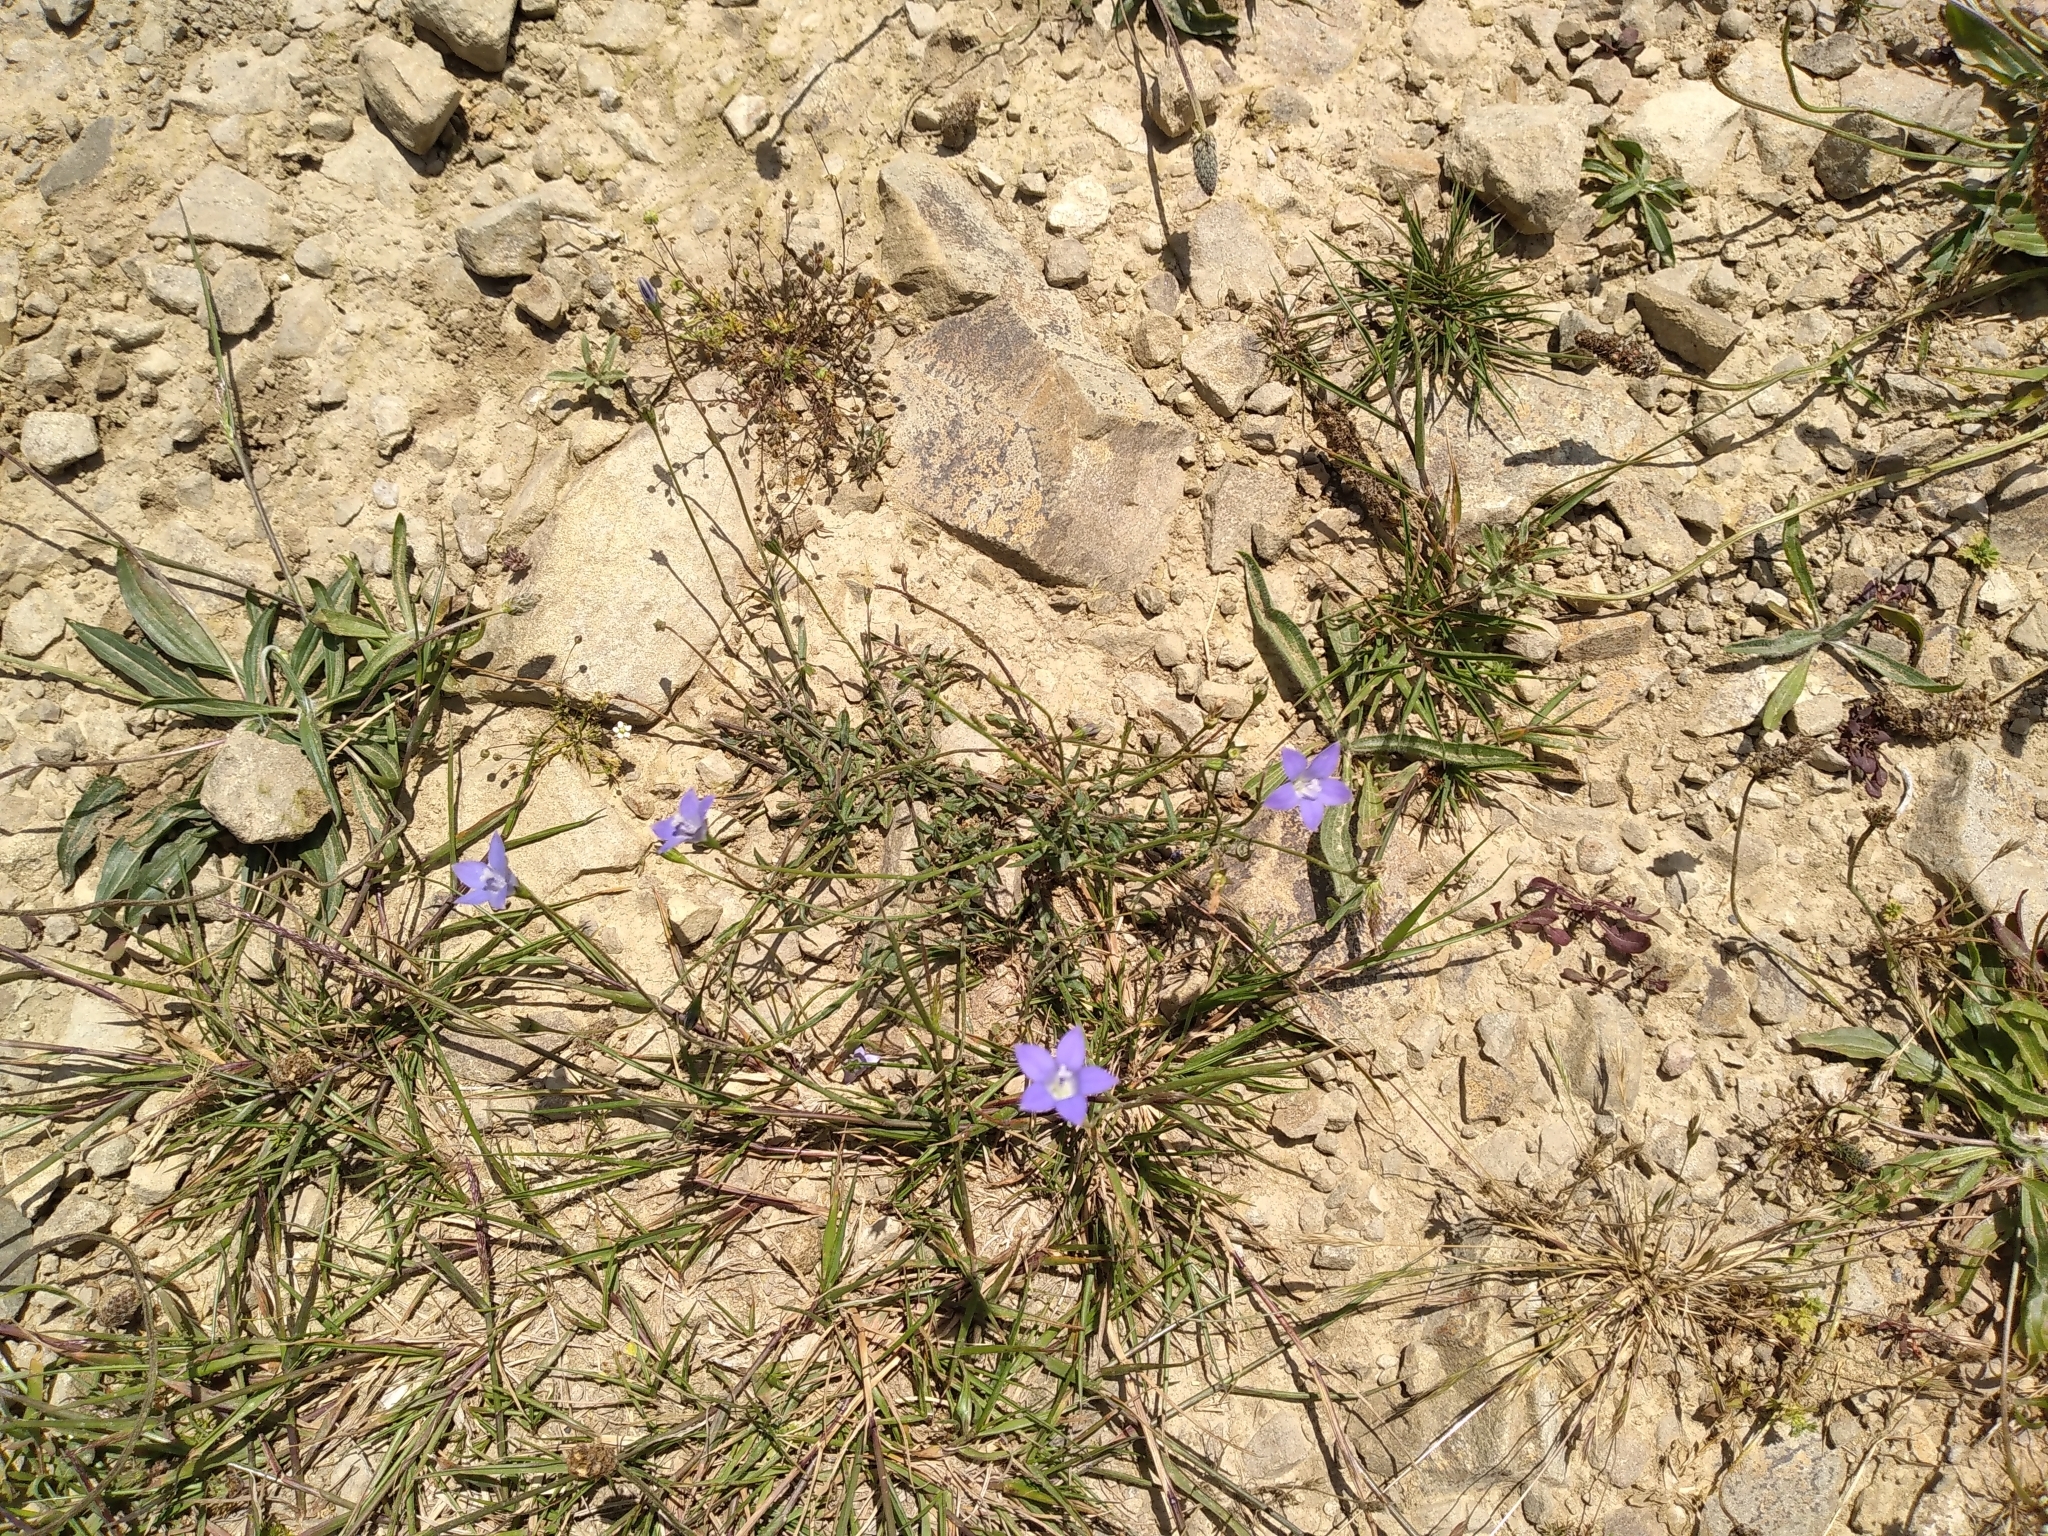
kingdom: Plantae
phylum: Tracheophyta
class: Magnoliopsida
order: Asterales
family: Campanulaceae
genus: Wahlenbergia
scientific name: Wahlenbergia violacea
